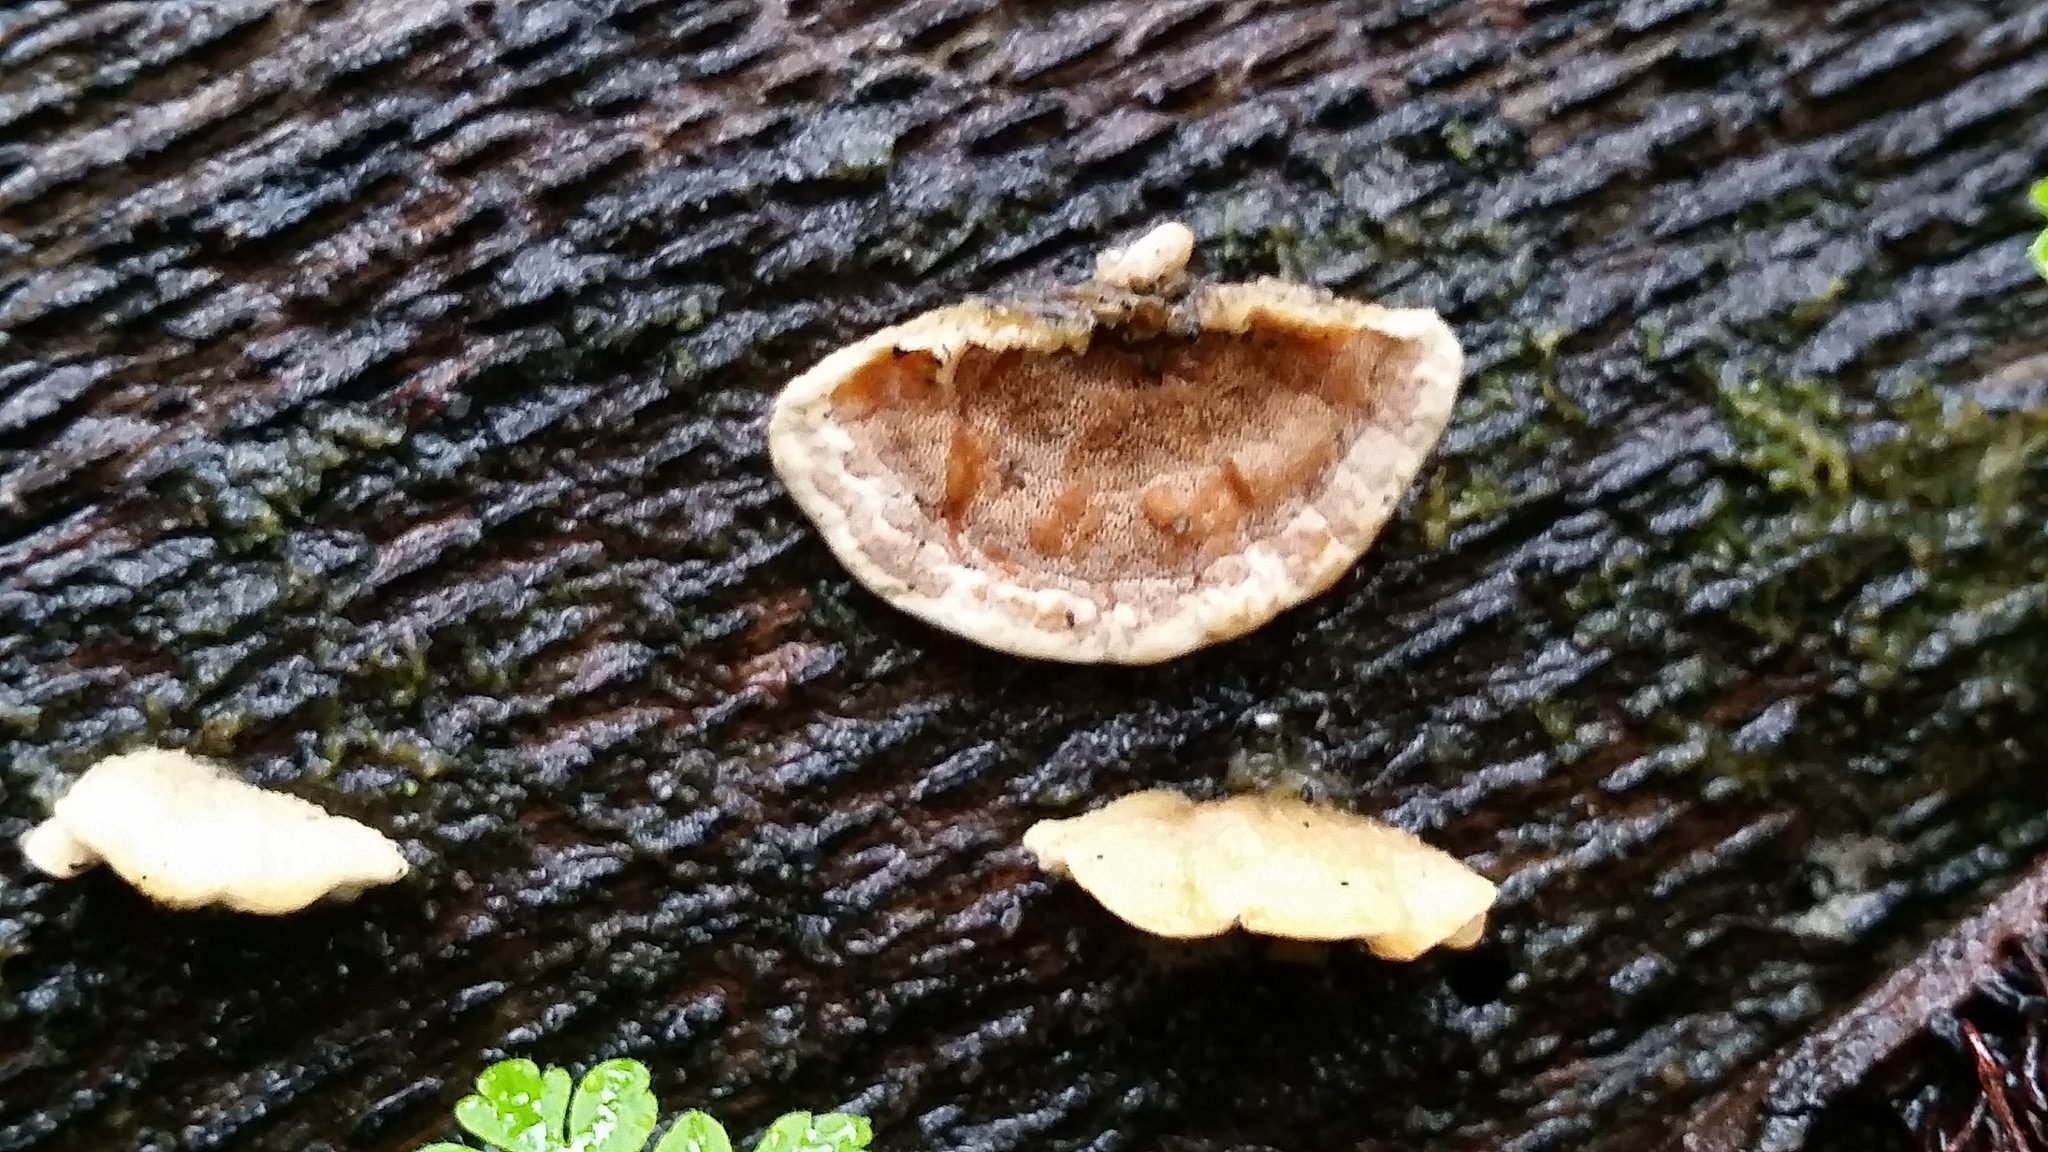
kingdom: Fungi
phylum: Basidiomycota
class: Agaricomycetes
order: Polyporales
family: Irpicaceae
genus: Vitreoporus
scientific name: Vitreoporus dichrous
